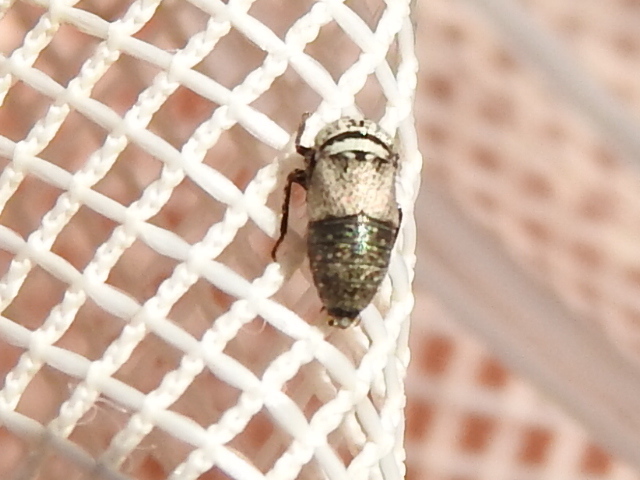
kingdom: Animalia
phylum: Arthropoda
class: Insecta
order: Hemiptera
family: Cicadellidae
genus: Driotura
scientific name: Driotura robusta
